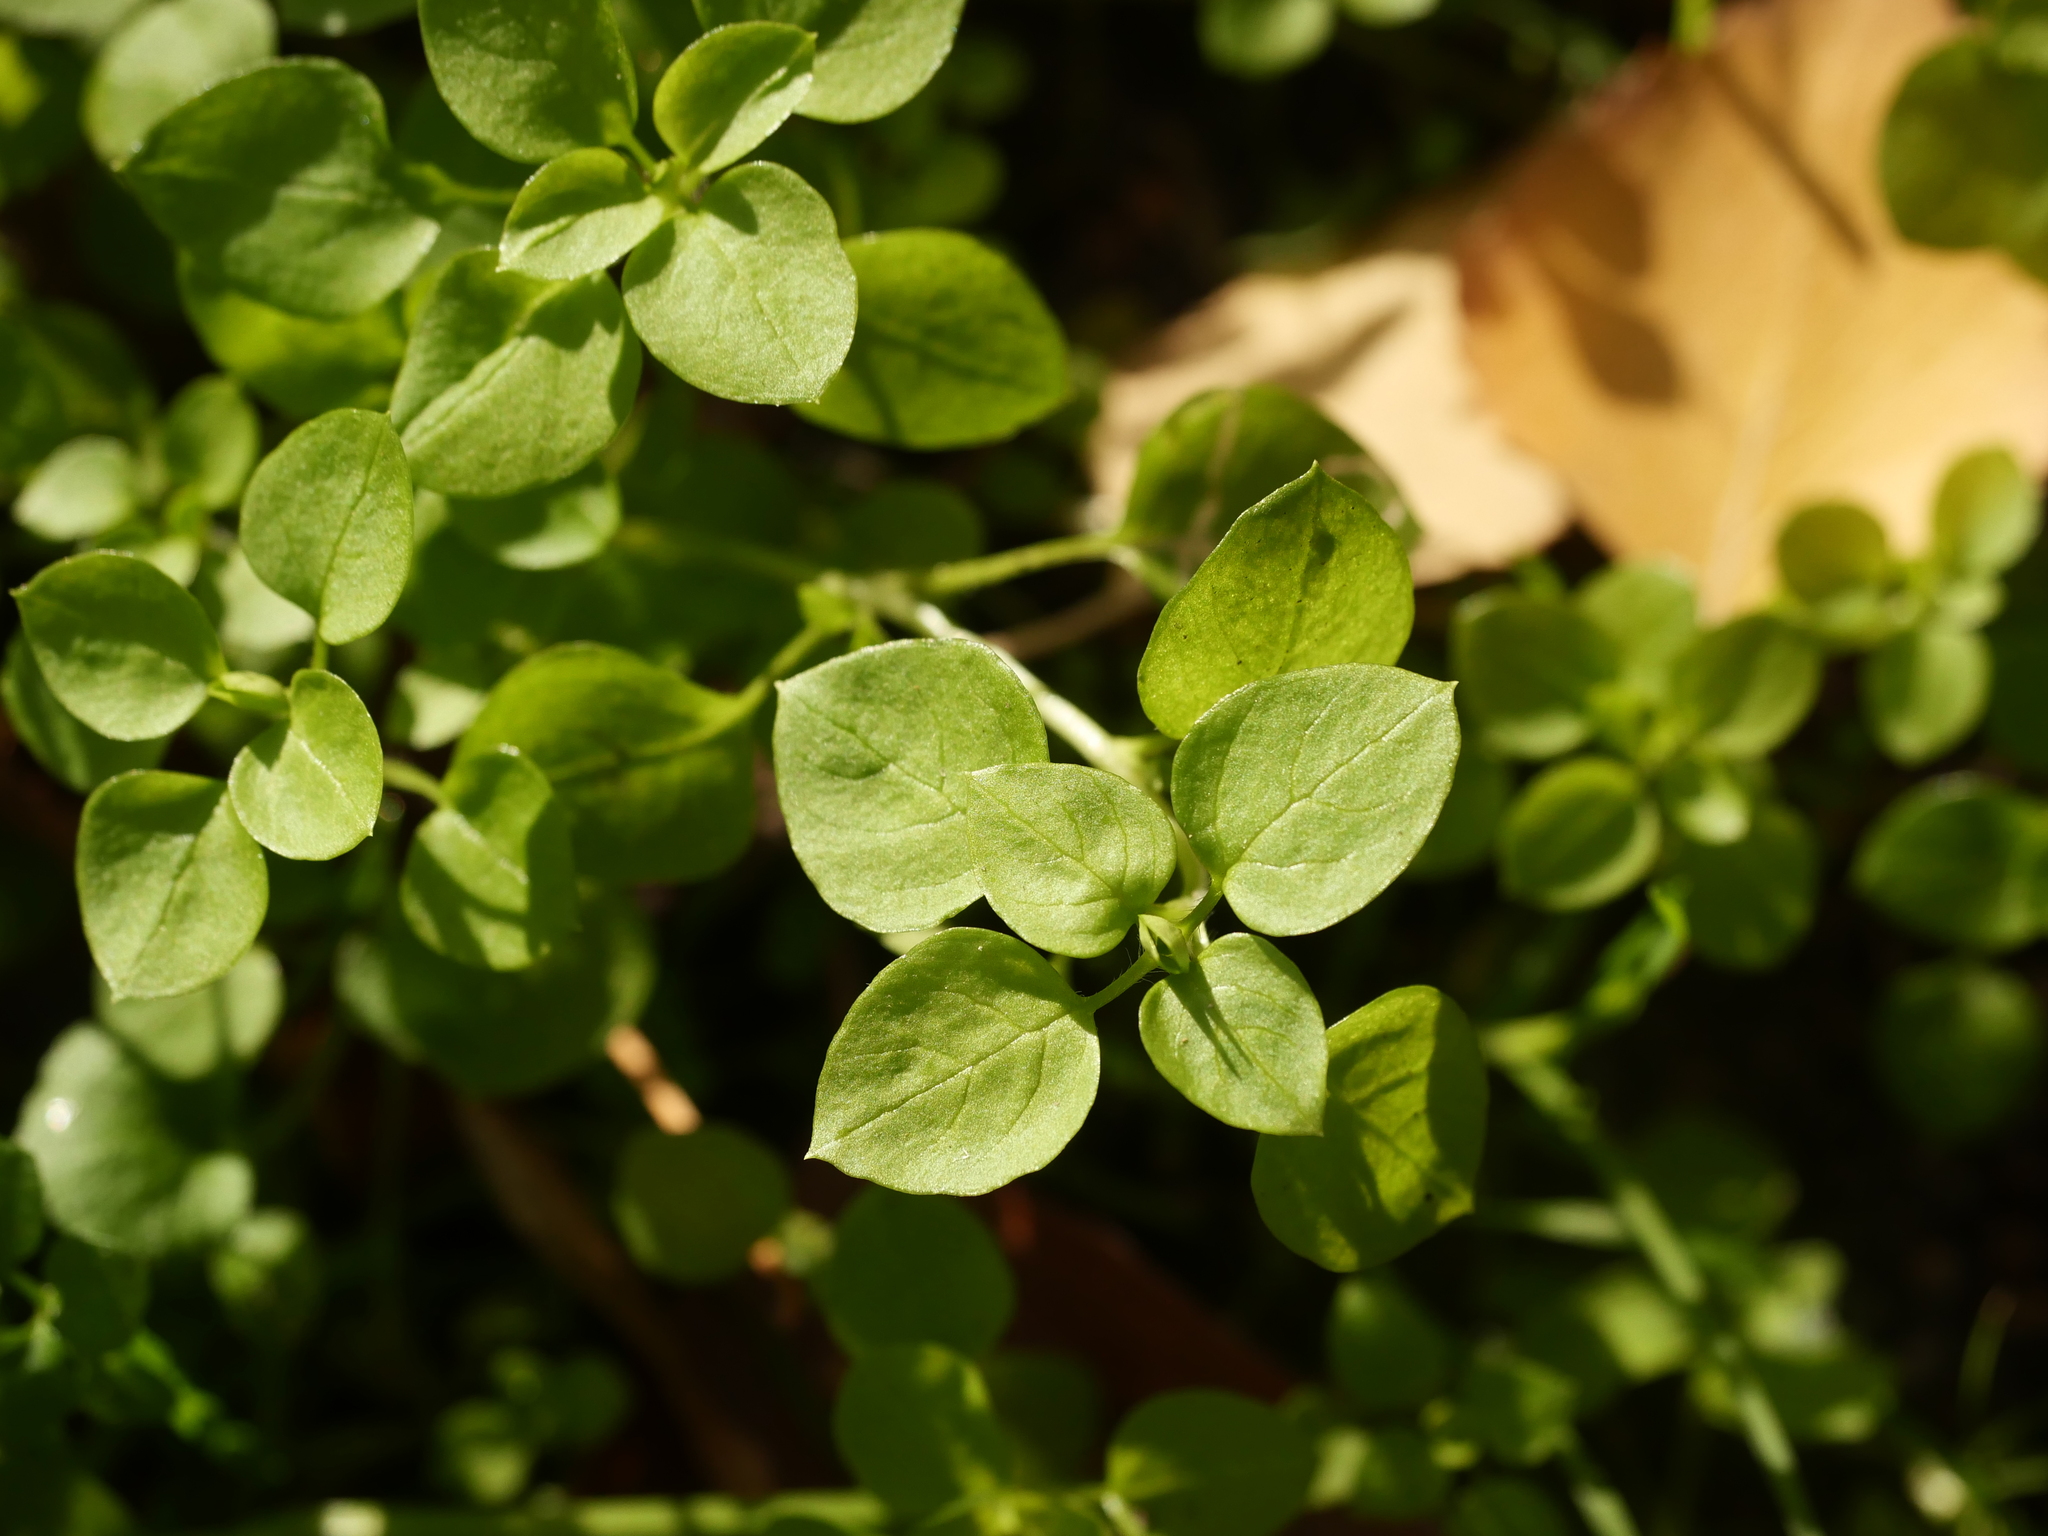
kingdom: Plantae
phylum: Tracheophyta
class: Magnoliopsida
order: Caryophyllales
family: Caryophyllaceae
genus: Stellaria
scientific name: Stellaria media
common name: Common chickweed
